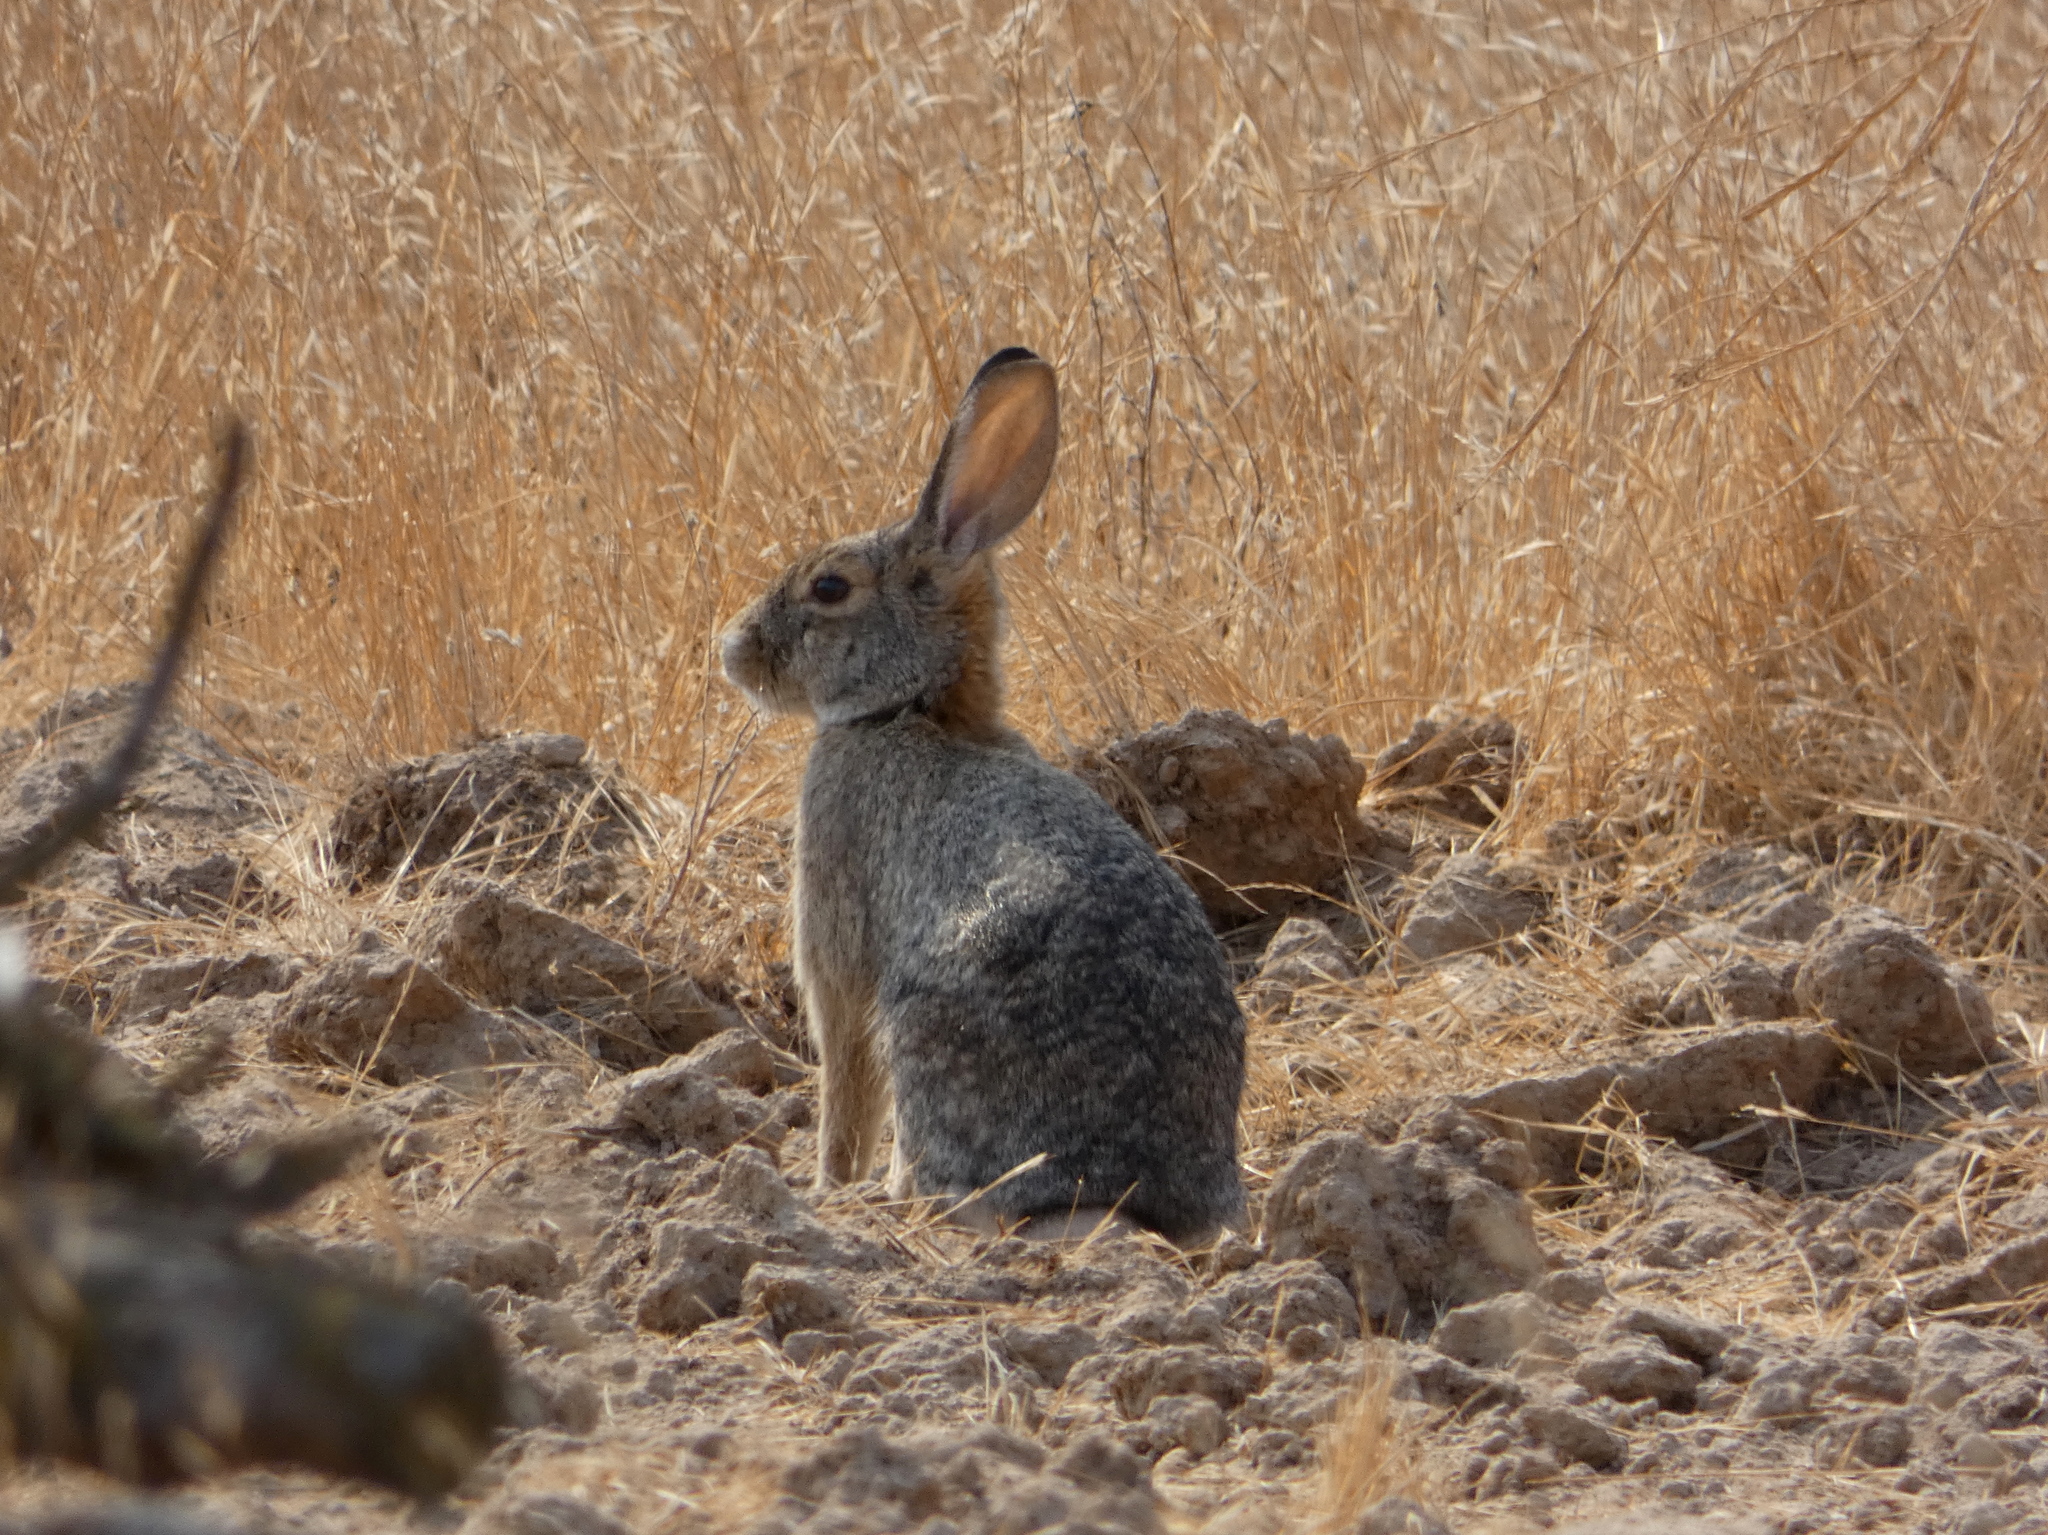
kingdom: Animalia
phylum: Chordata
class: Mammalia
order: Lagomorpha
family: Leporidae
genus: Sylvilagus
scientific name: Sylvilagus audubonii
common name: Desert cottontail
